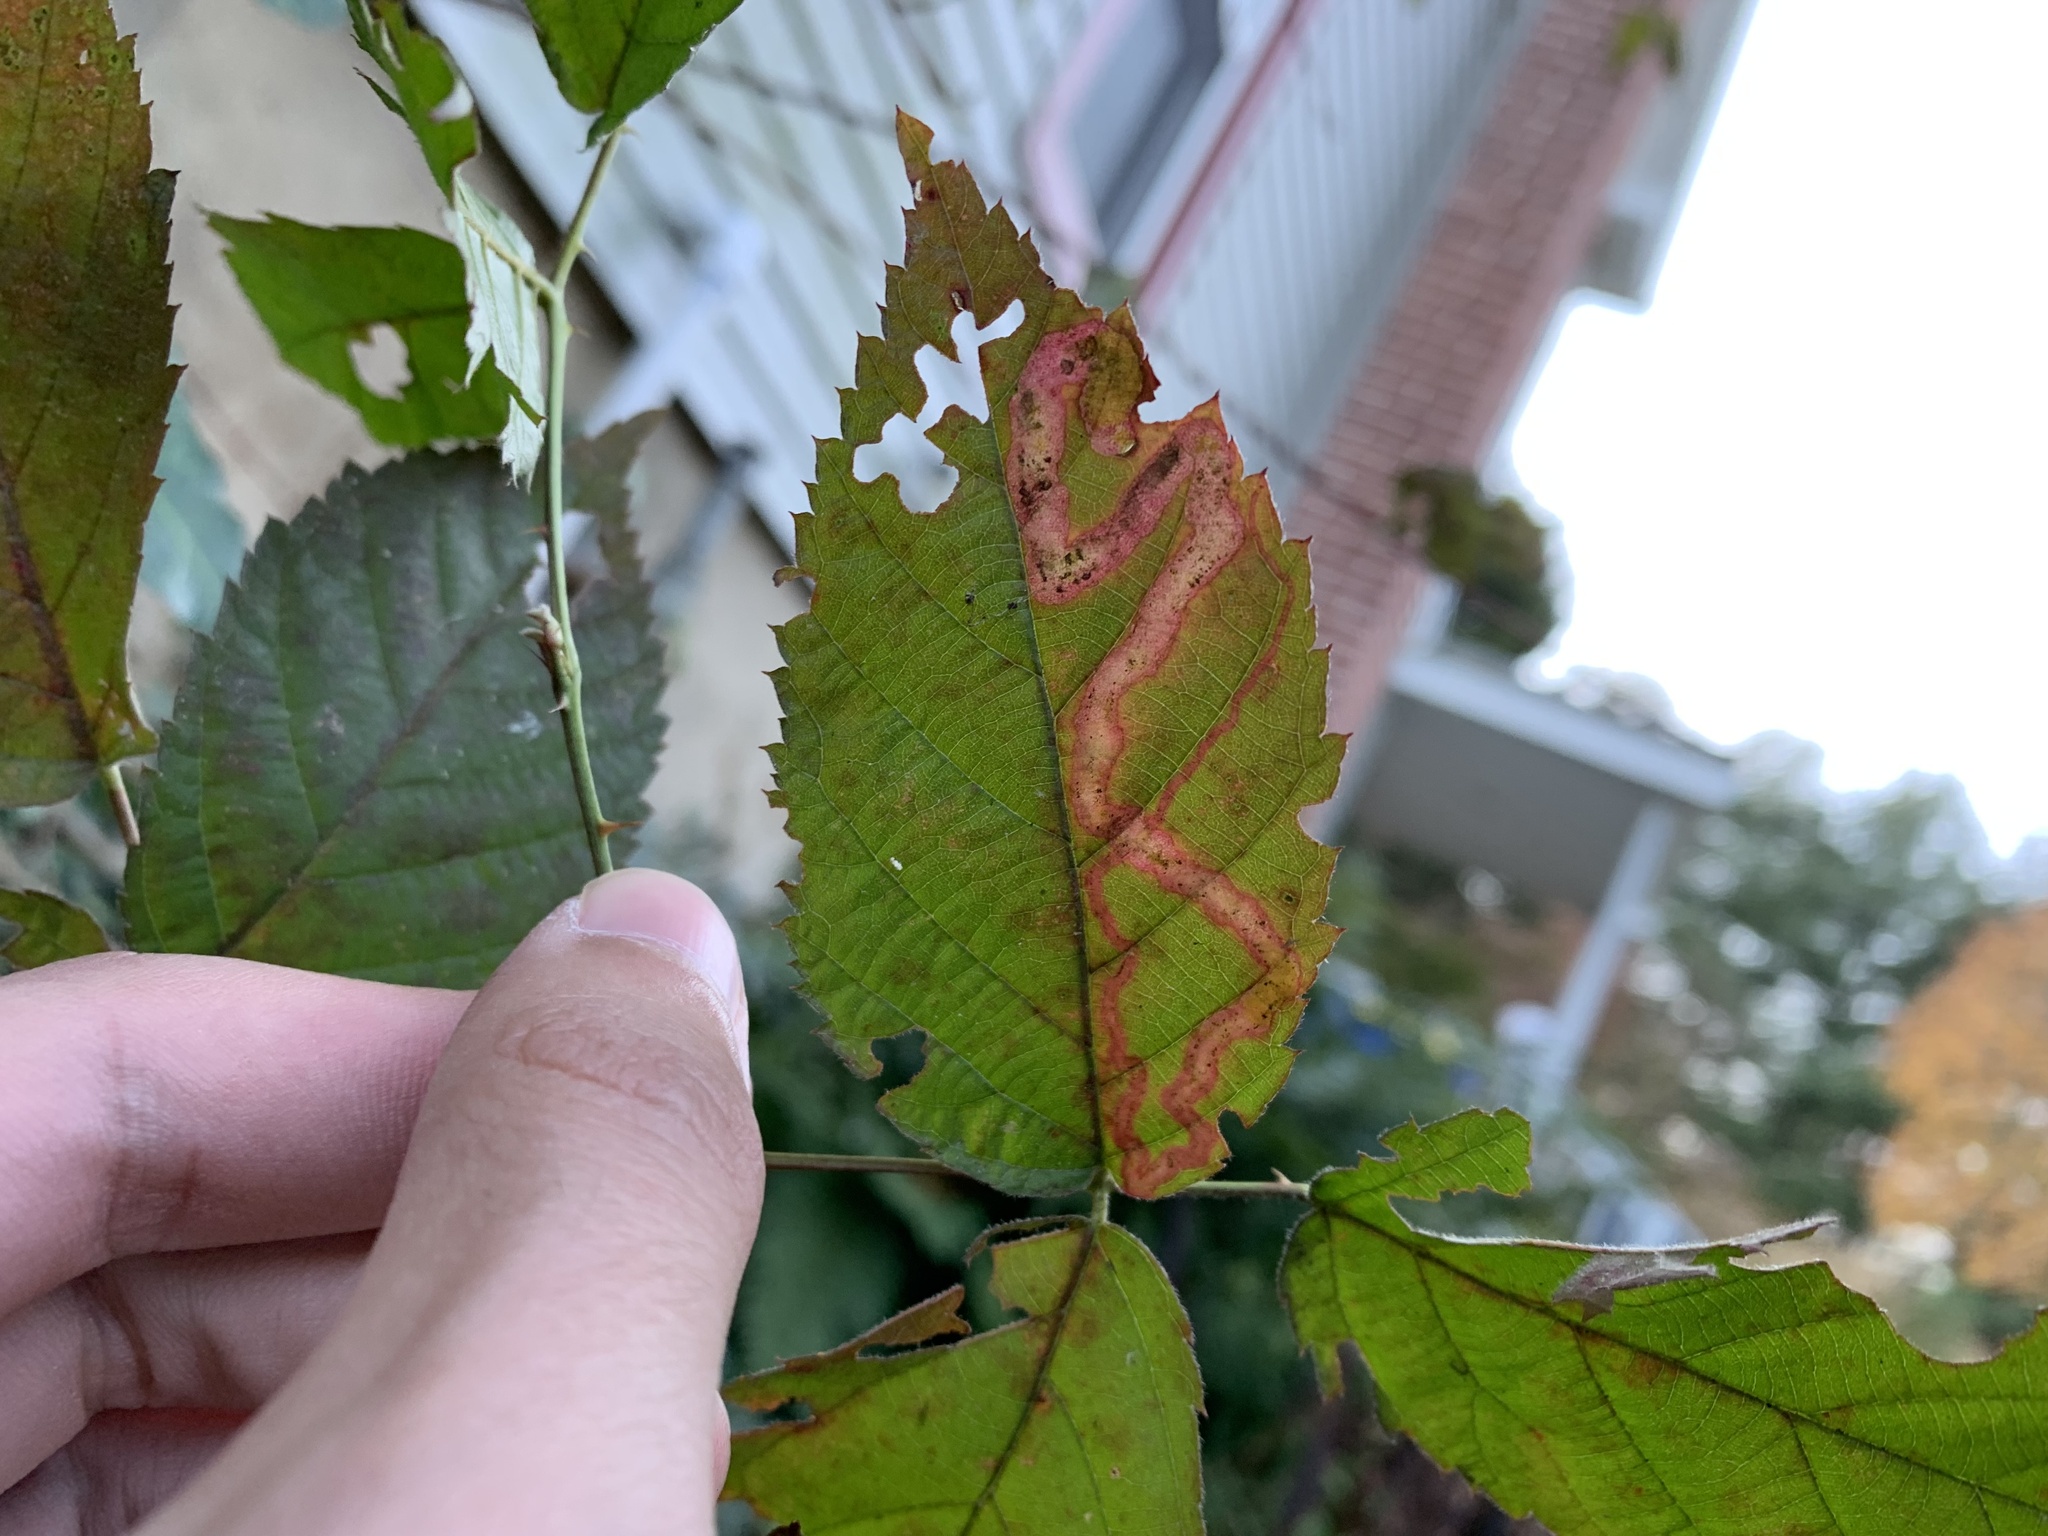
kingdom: Animalia
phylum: Arthropoda
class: Insecta
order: Diptera
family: Agromyzidae
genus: Agromyza
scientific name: Agromyza vockerothi
